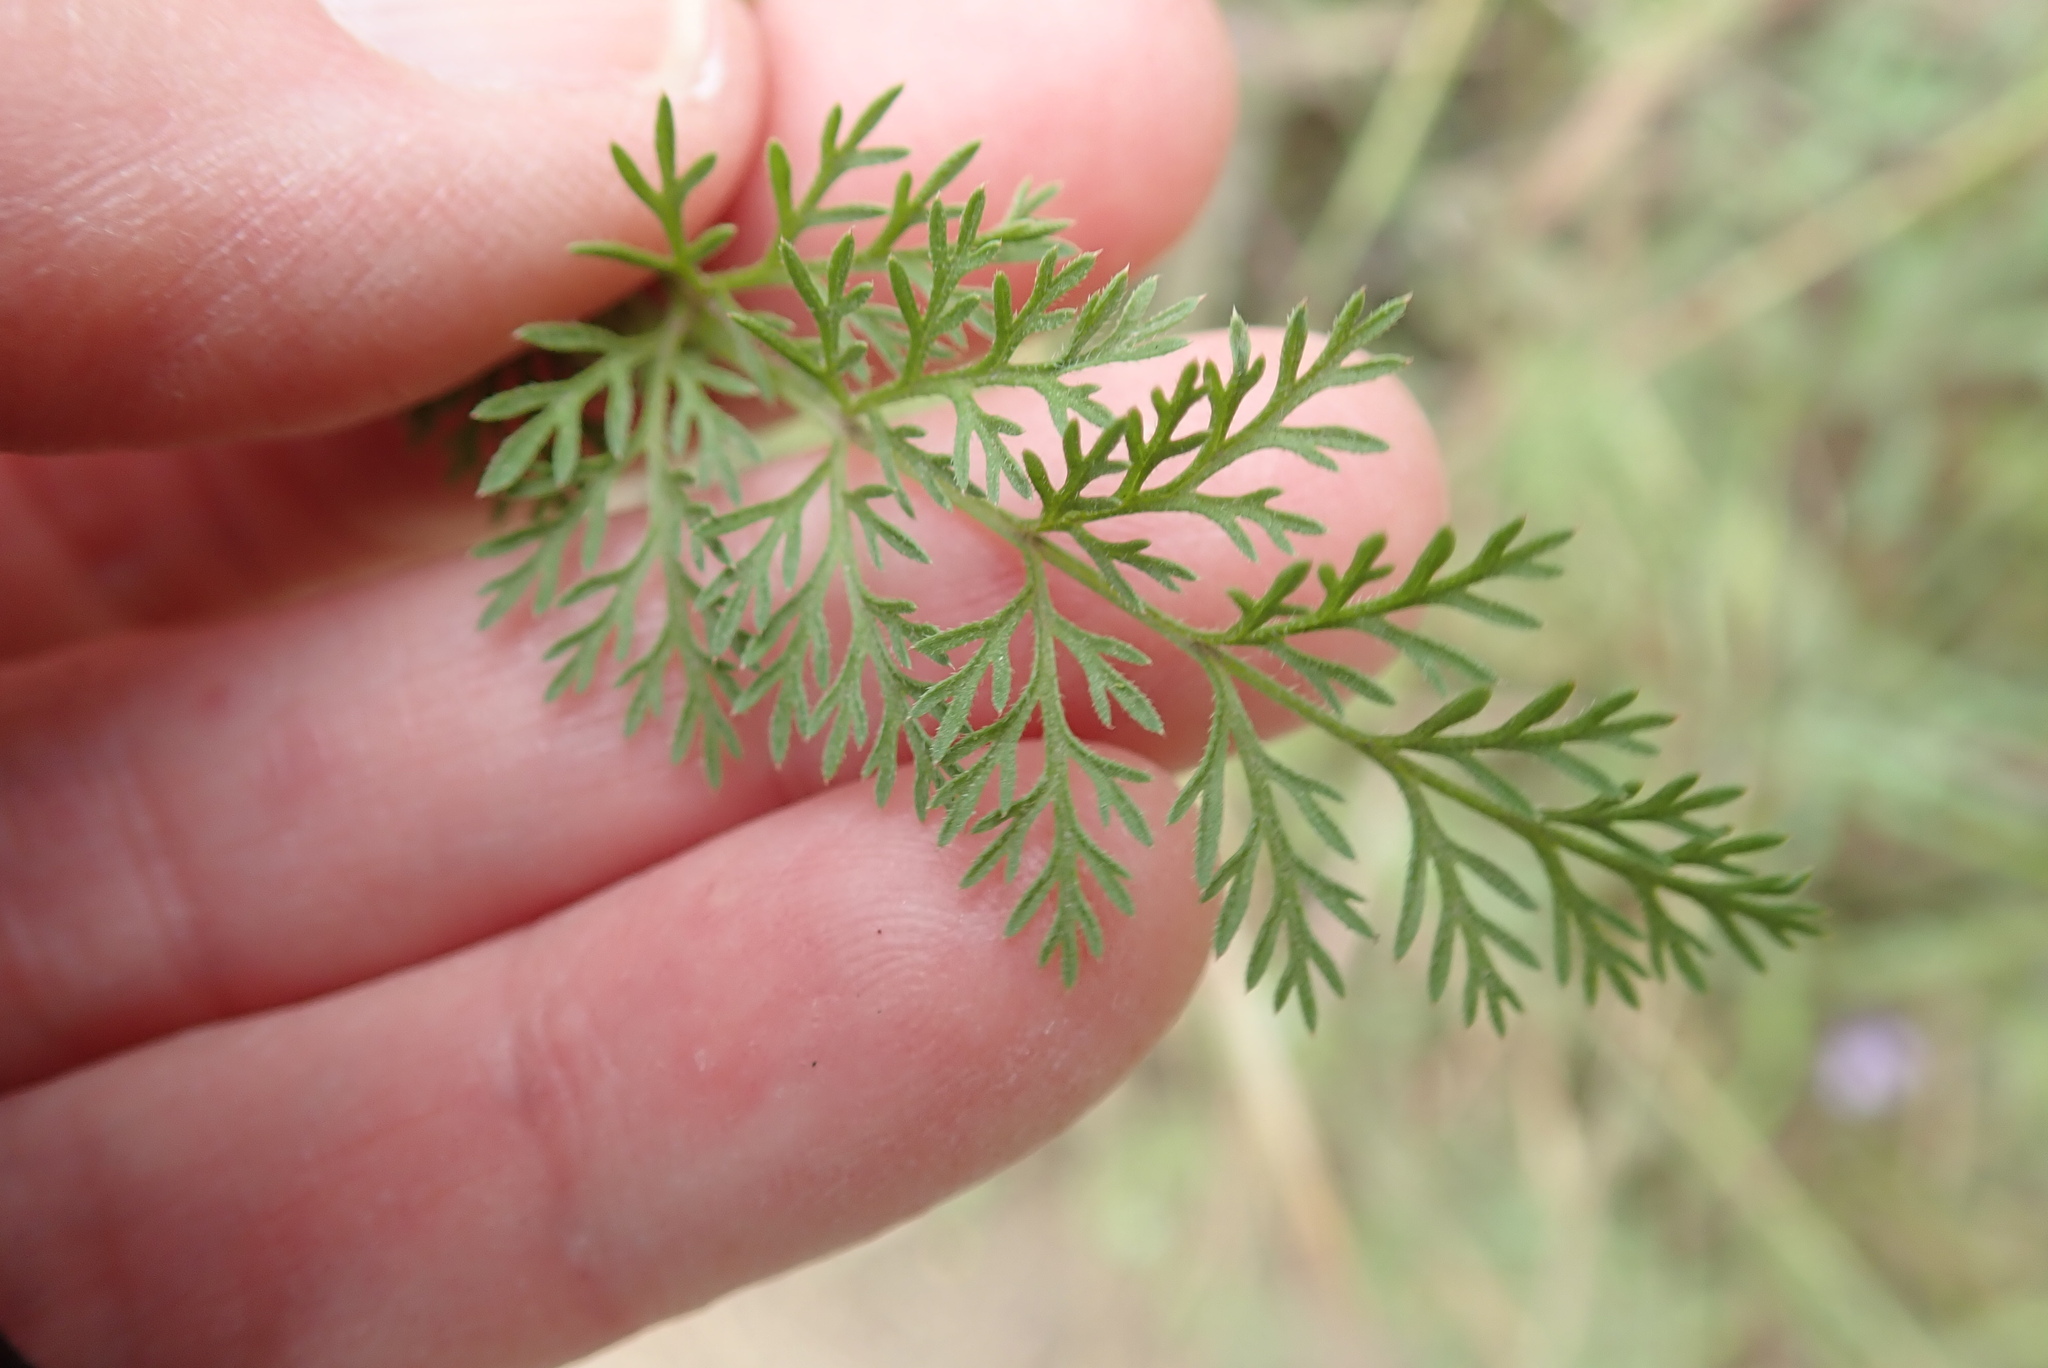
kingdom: Plantae
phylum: Tracheophyta
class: Magnoliopsida
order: Apiales
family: Apiaceae
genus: Daucus
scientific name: Daucus pusillus
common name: Southwest wild carrot
